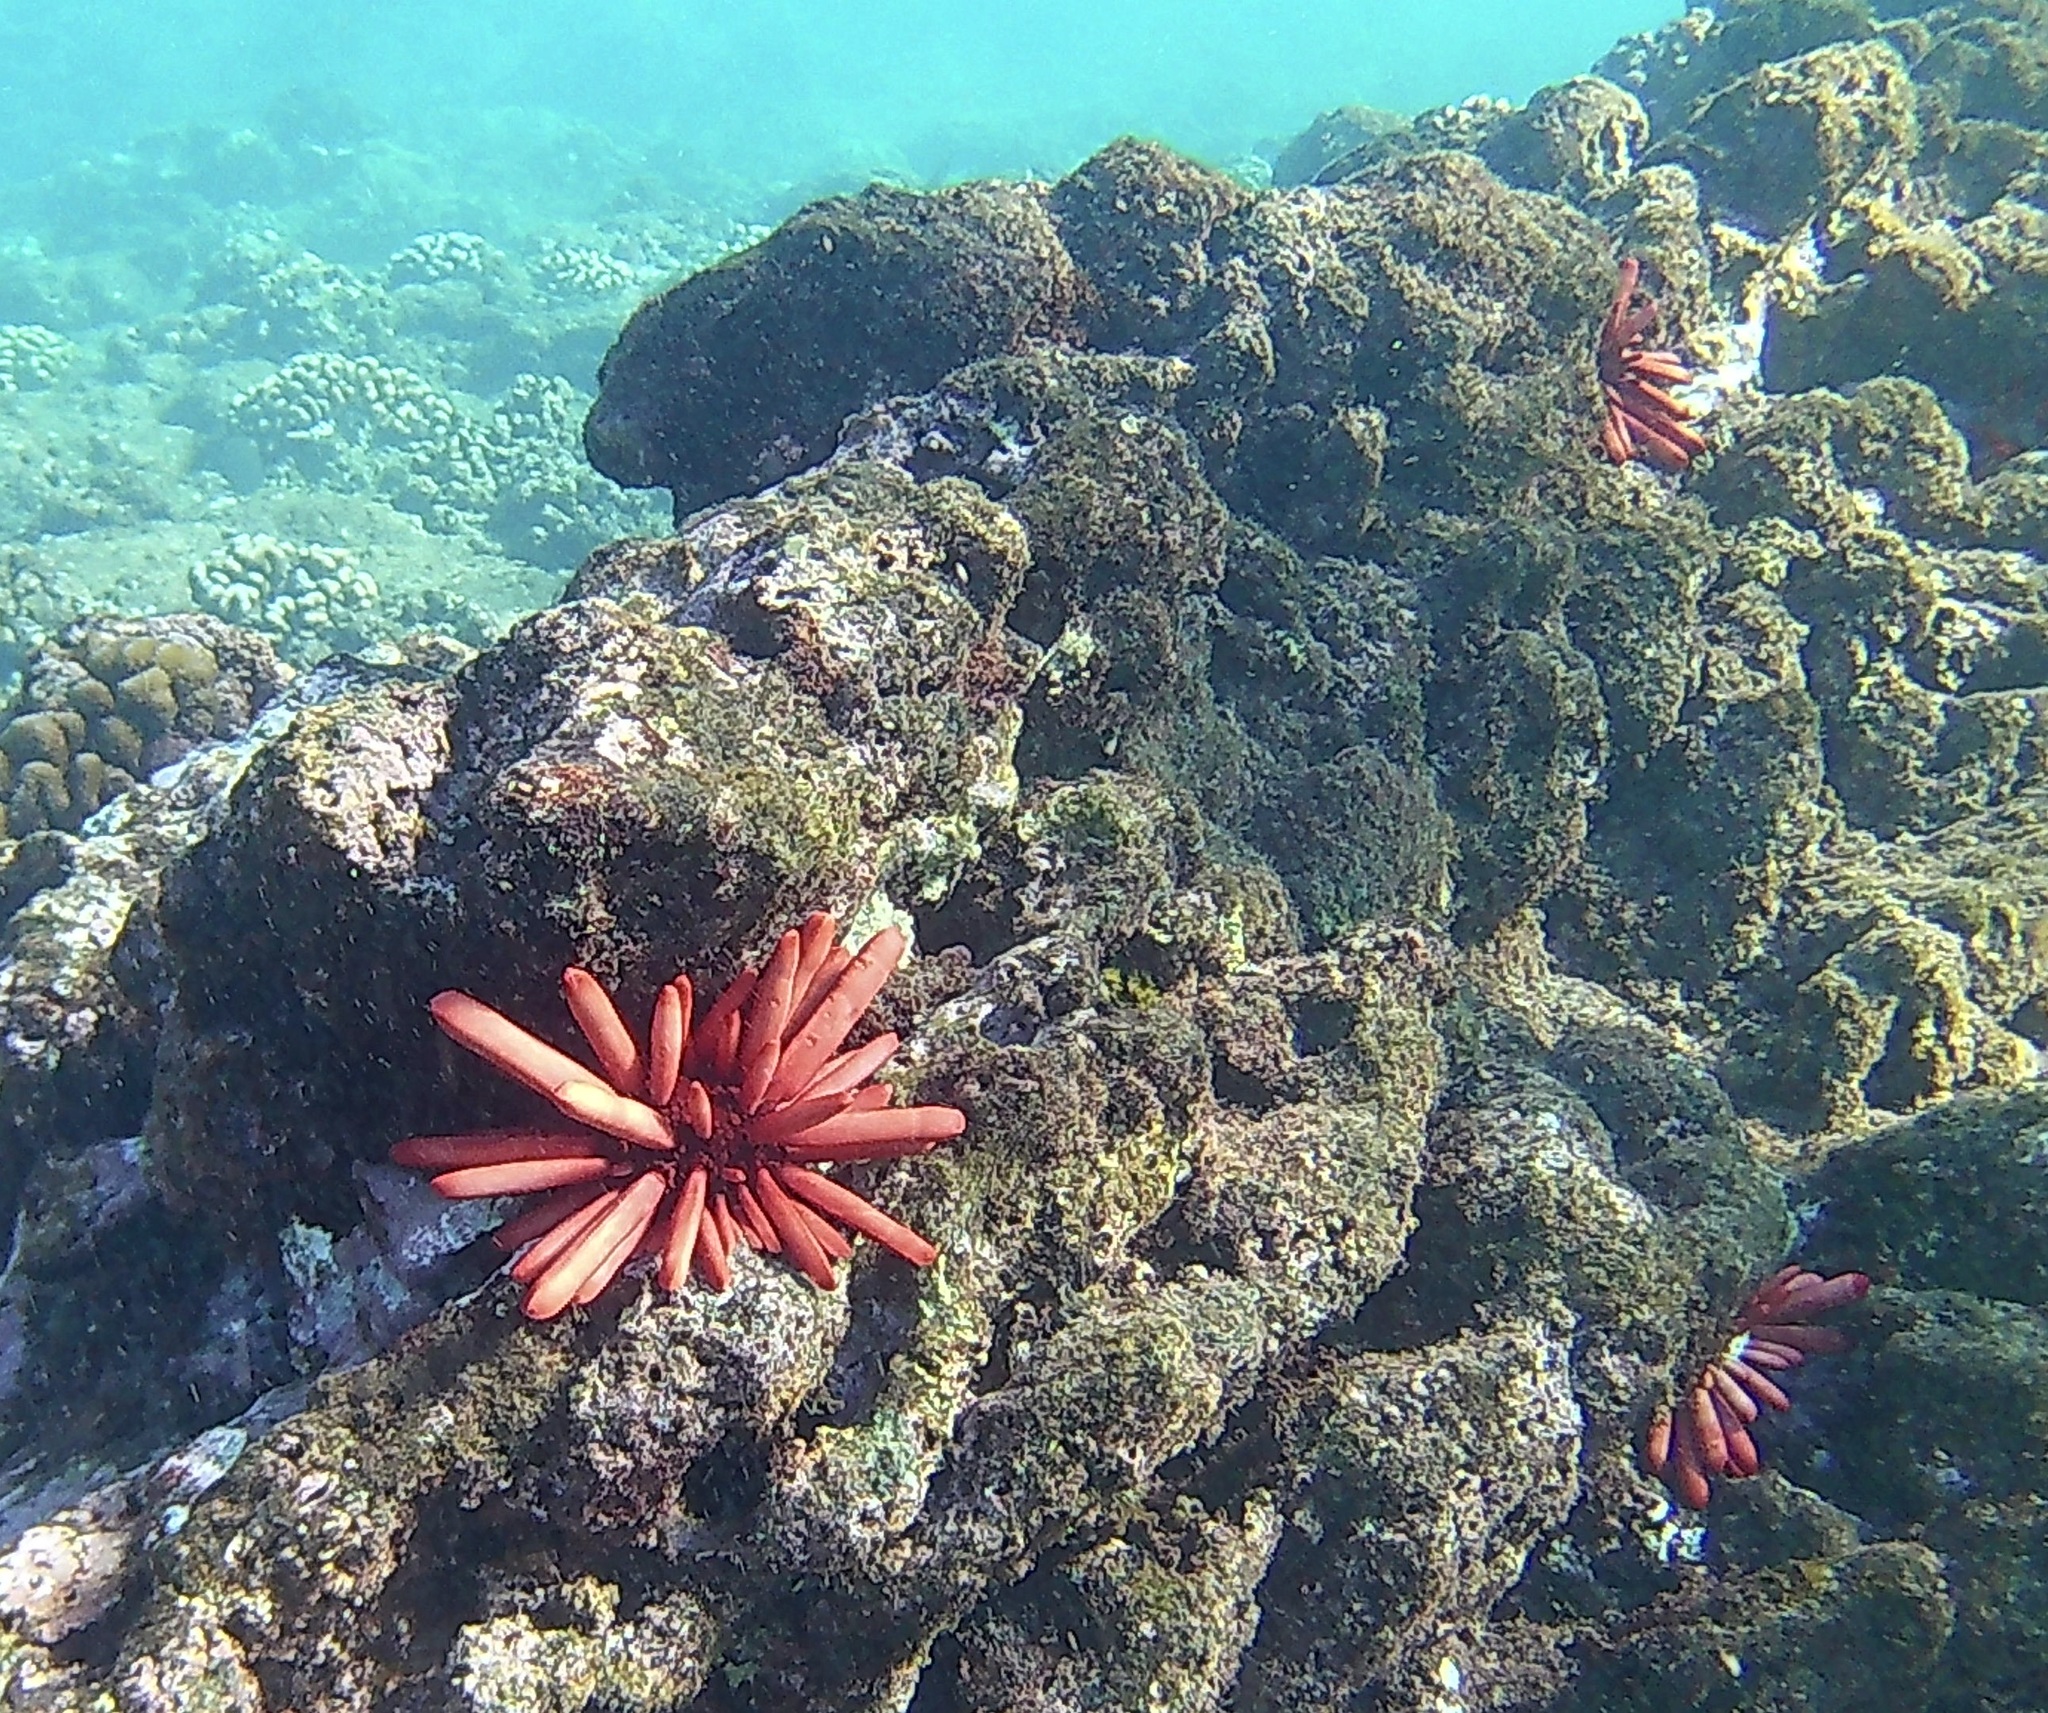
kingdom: Animalia
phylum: Echinodermata
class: Echinoidea
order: Camarodonta
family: Echinometridae
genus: Heterocentrotus
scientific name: Heterocentrotus mamillatus
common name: Slate pencil urchin
